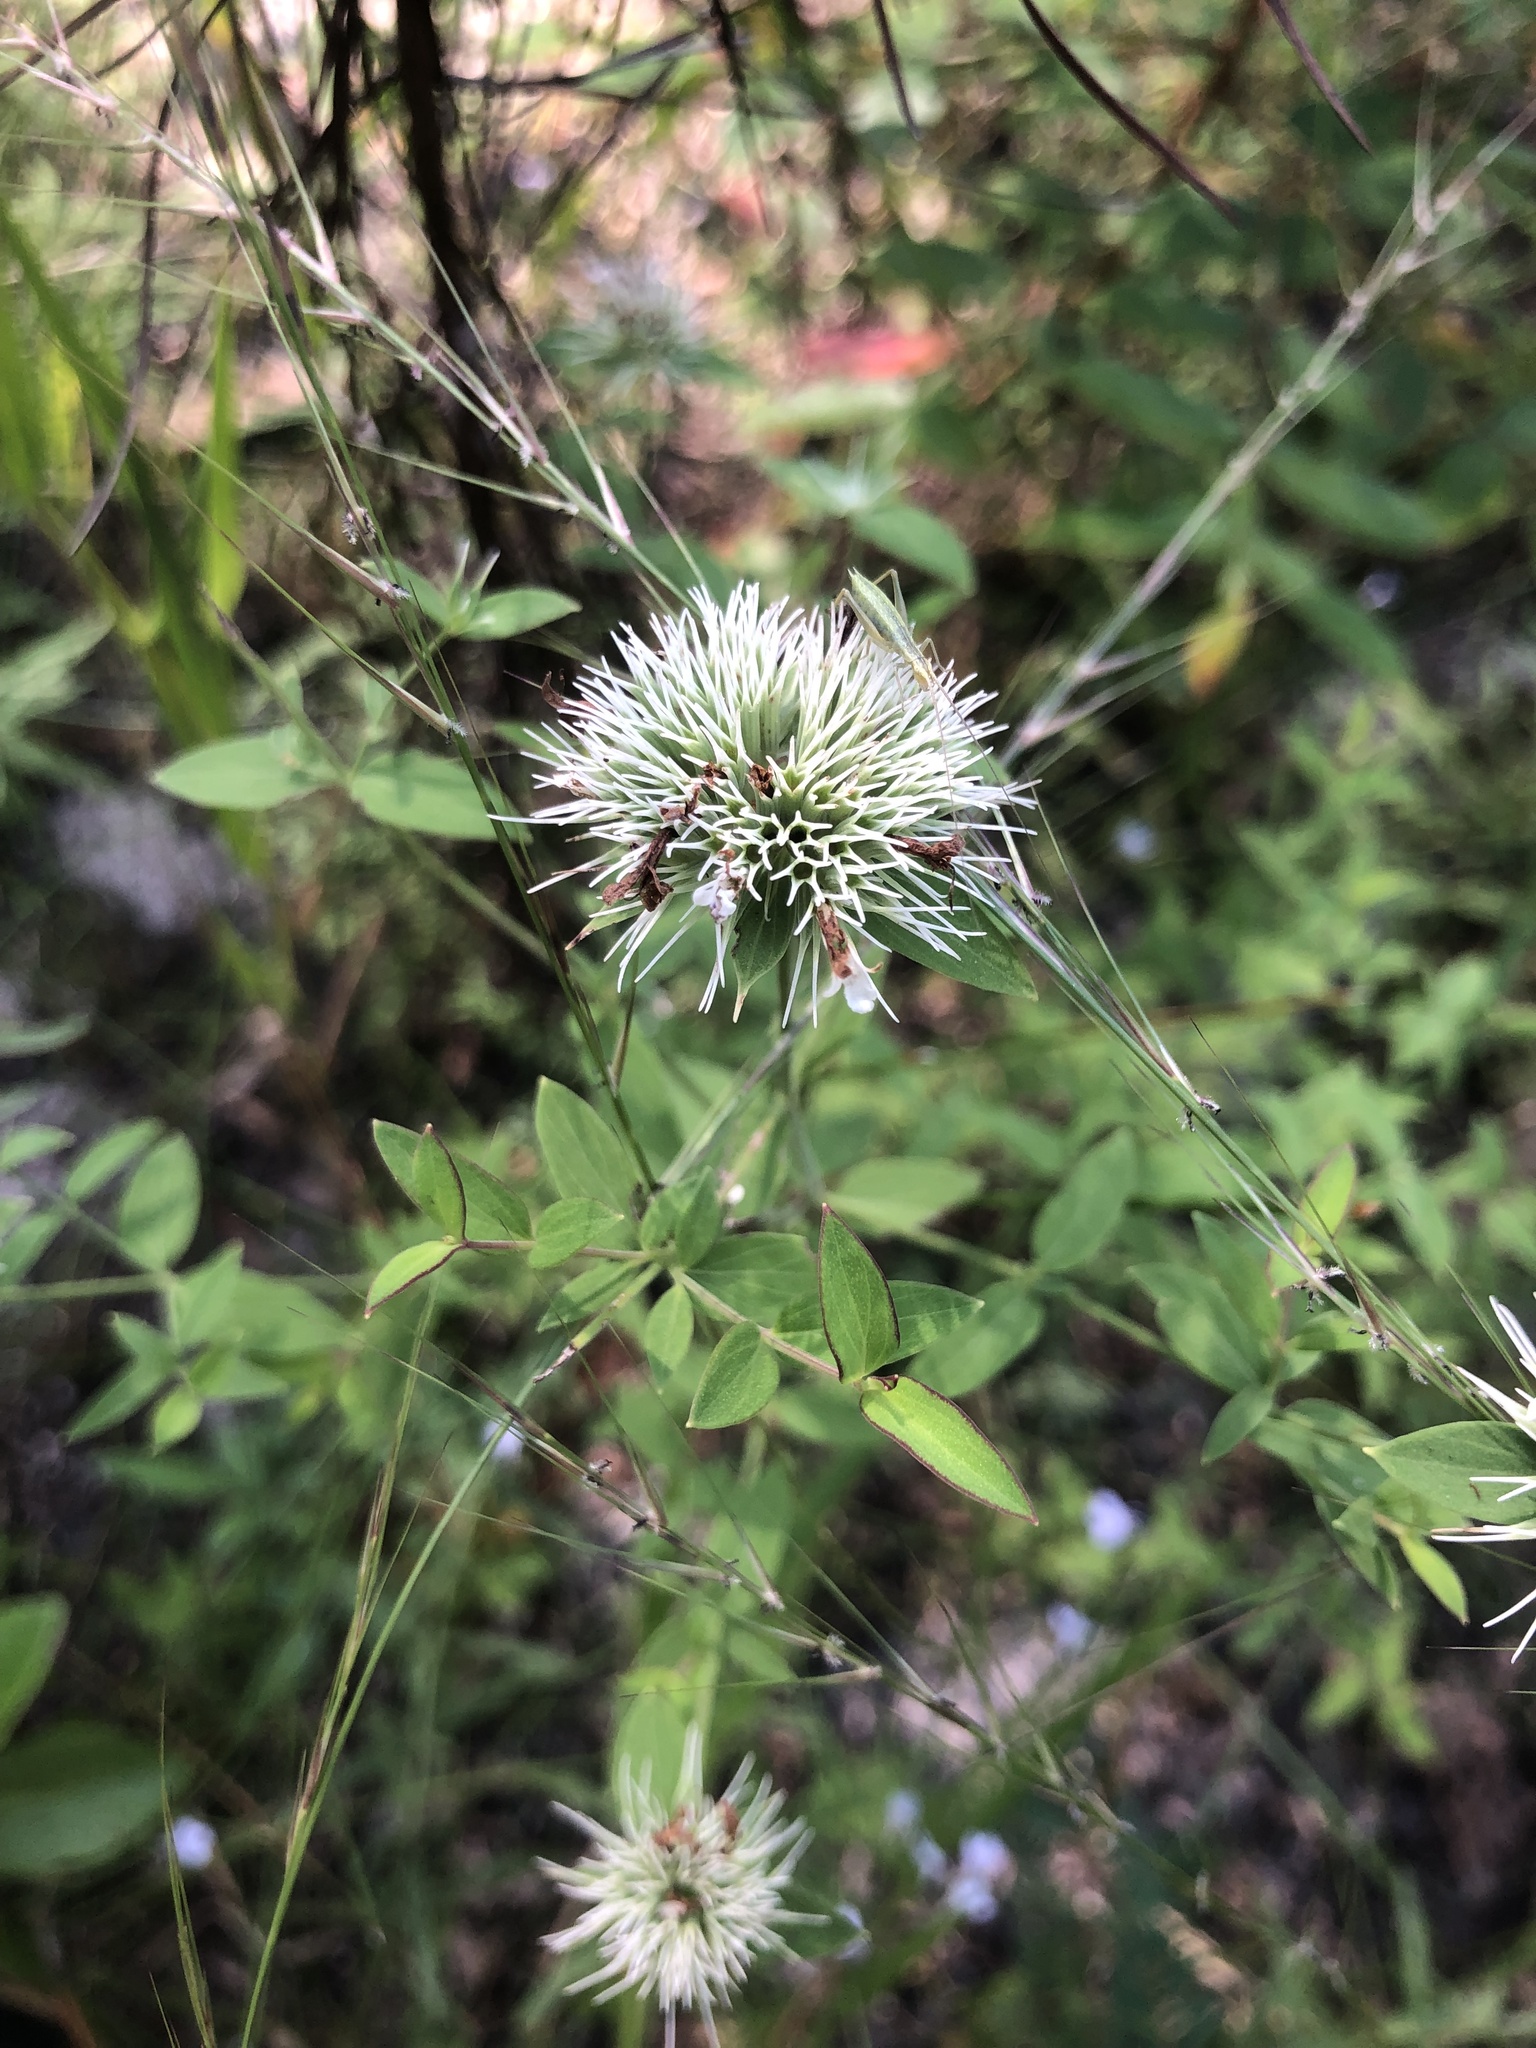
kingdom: Plantae
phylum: Tracheophyta
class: Magnoliopsida
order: Lamiales
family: Lamiaceae
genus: Pycnanthemum
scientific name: Pycnanthemum flexuosum
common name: Appalachian mountain-mint
